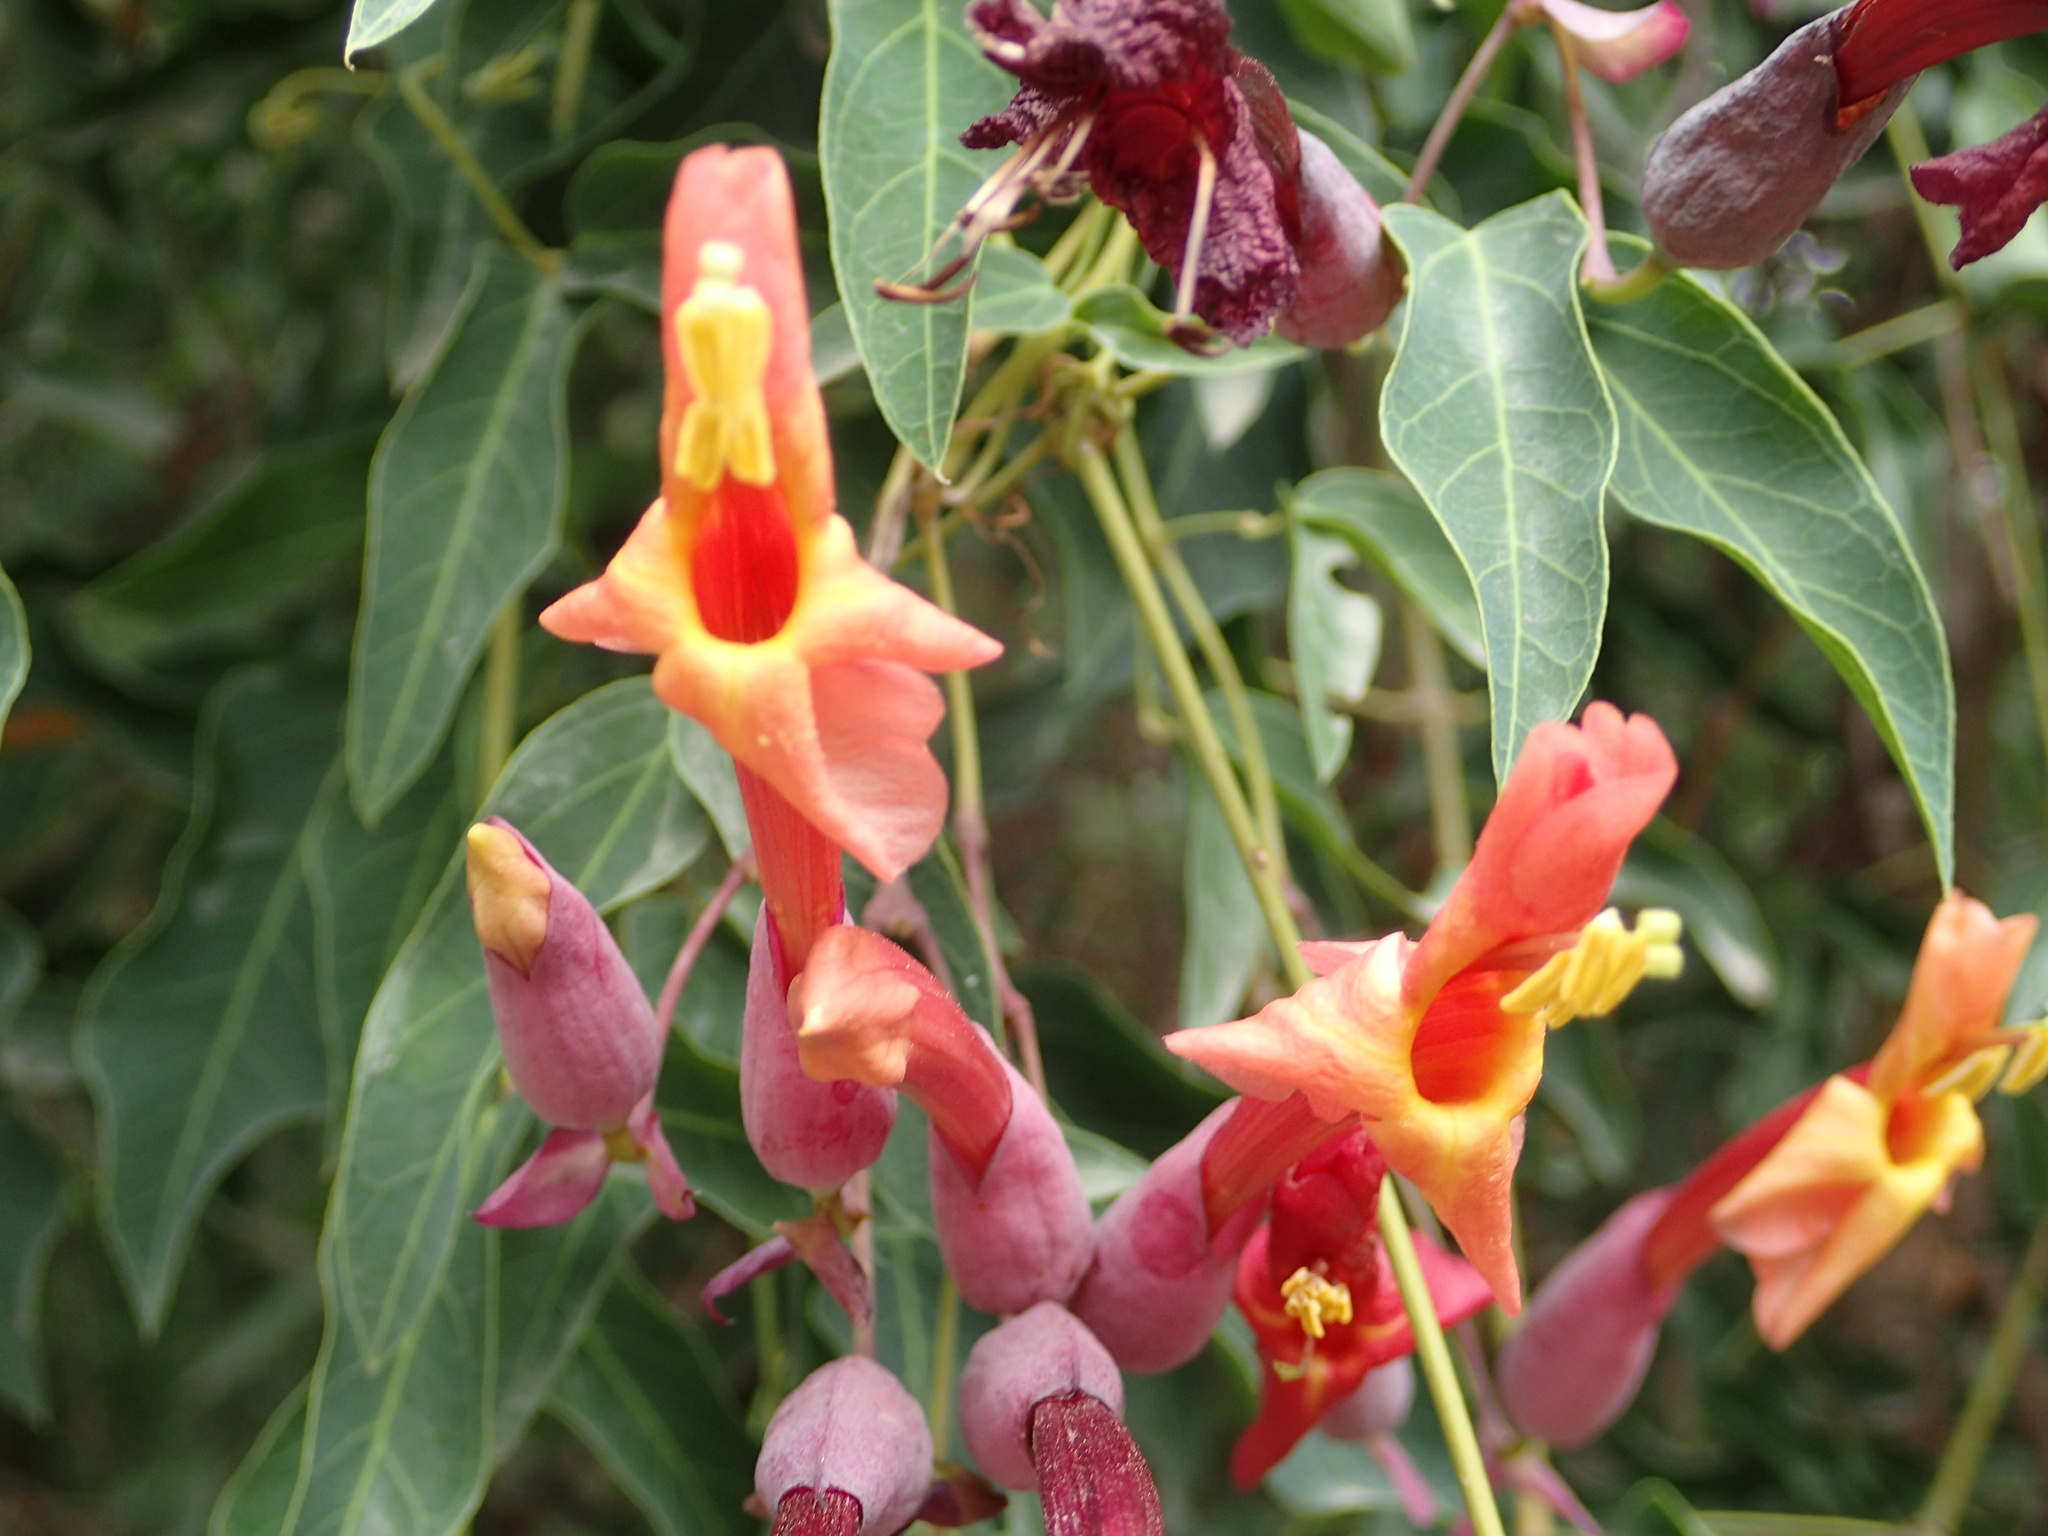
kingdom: Plantae
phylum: Tracheophyta
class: Magnoliopsida
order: Lamiales
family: Bignoniaceae
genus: Dolichandra
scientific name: Dolichandra cynanchoides
